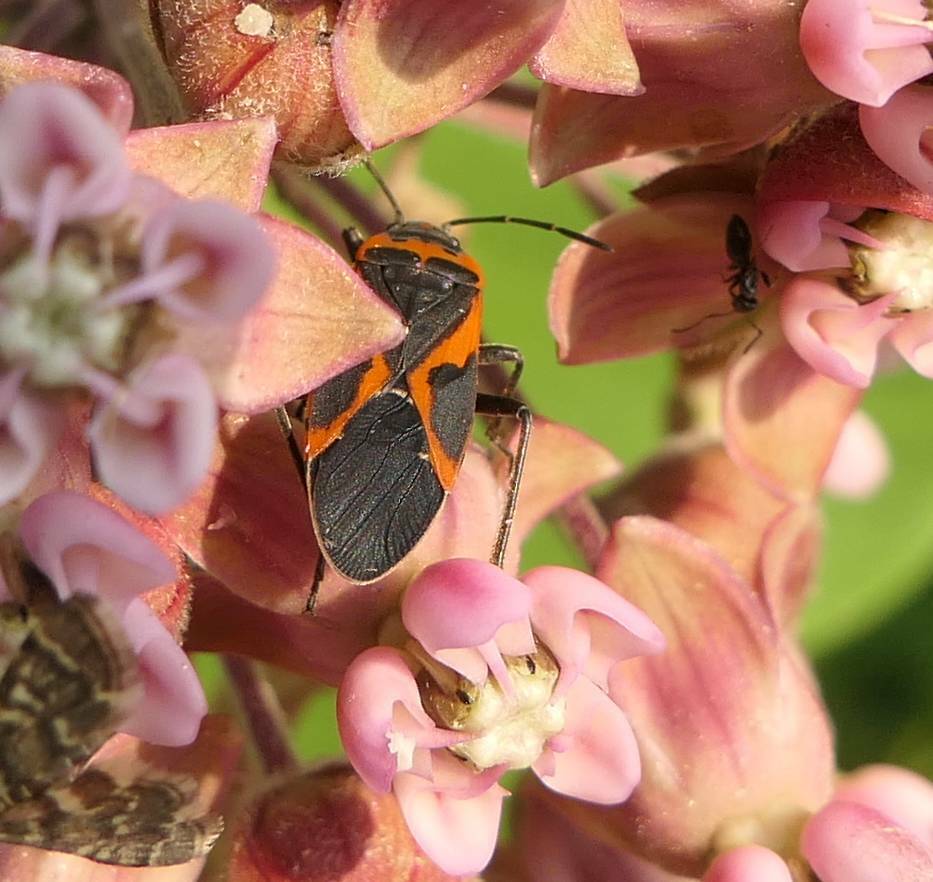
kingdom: Animalia
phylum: Arthropoda
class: Insecta
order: Hemiptera
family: Lygaeidae
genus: Lygaeus
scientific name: Lygaeus kalmii
